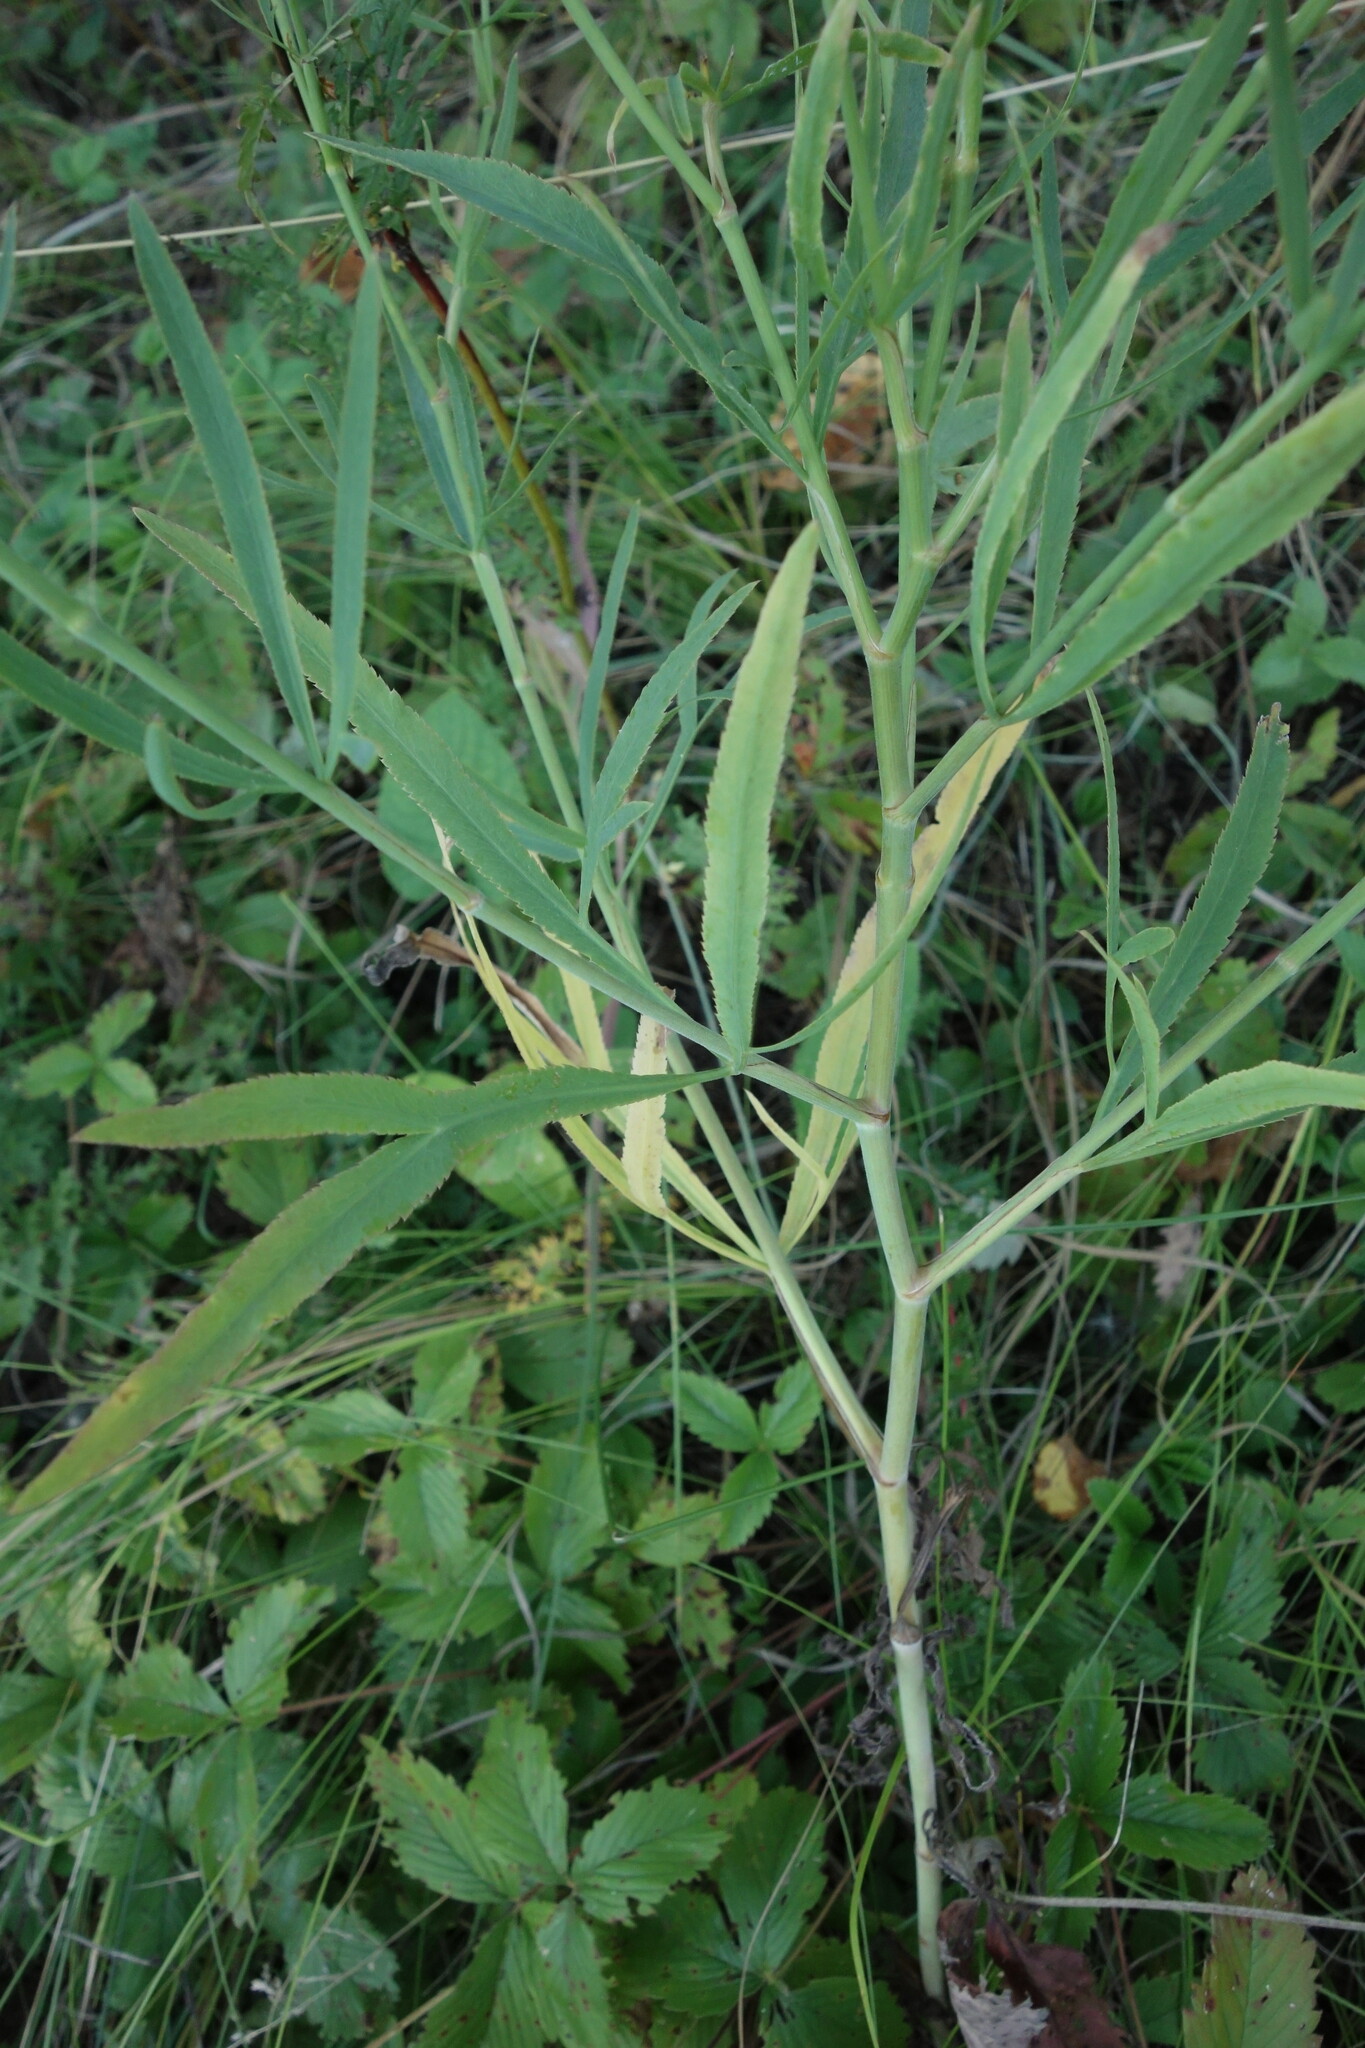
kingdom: Plantae
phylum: Tracheophyta
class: Magnoliopsida
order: Apiales
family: Apiaceae
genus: Falcaria
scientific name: Falcaria vulgaris
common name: Longleaf
